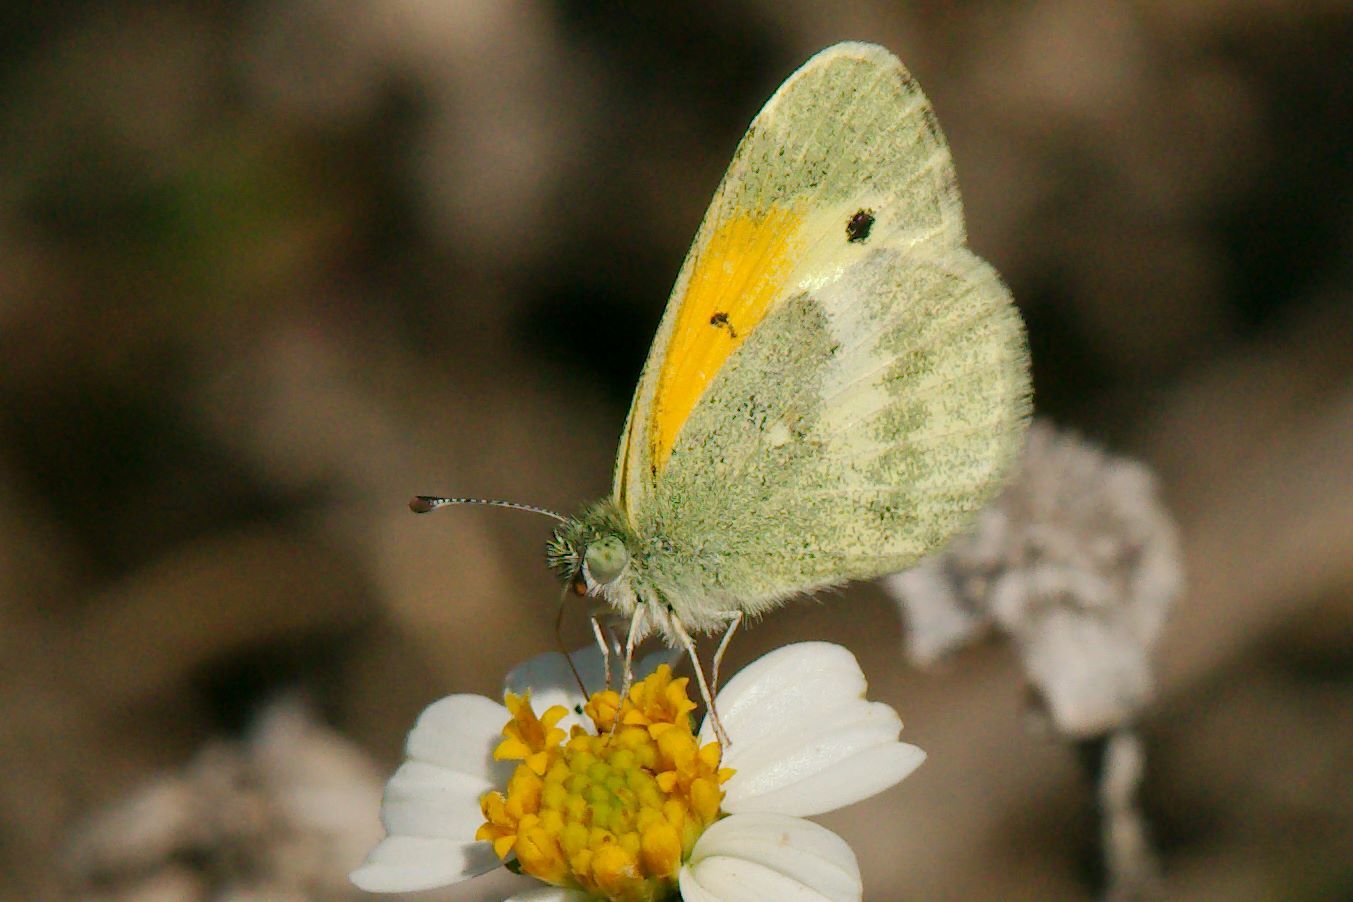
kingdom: Animalia
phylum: Arthropoda
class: Insecta
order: Lepidoptera
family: Pieridae
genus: Nathalis
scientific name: Nathalis iole
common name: Dainty sulphur
